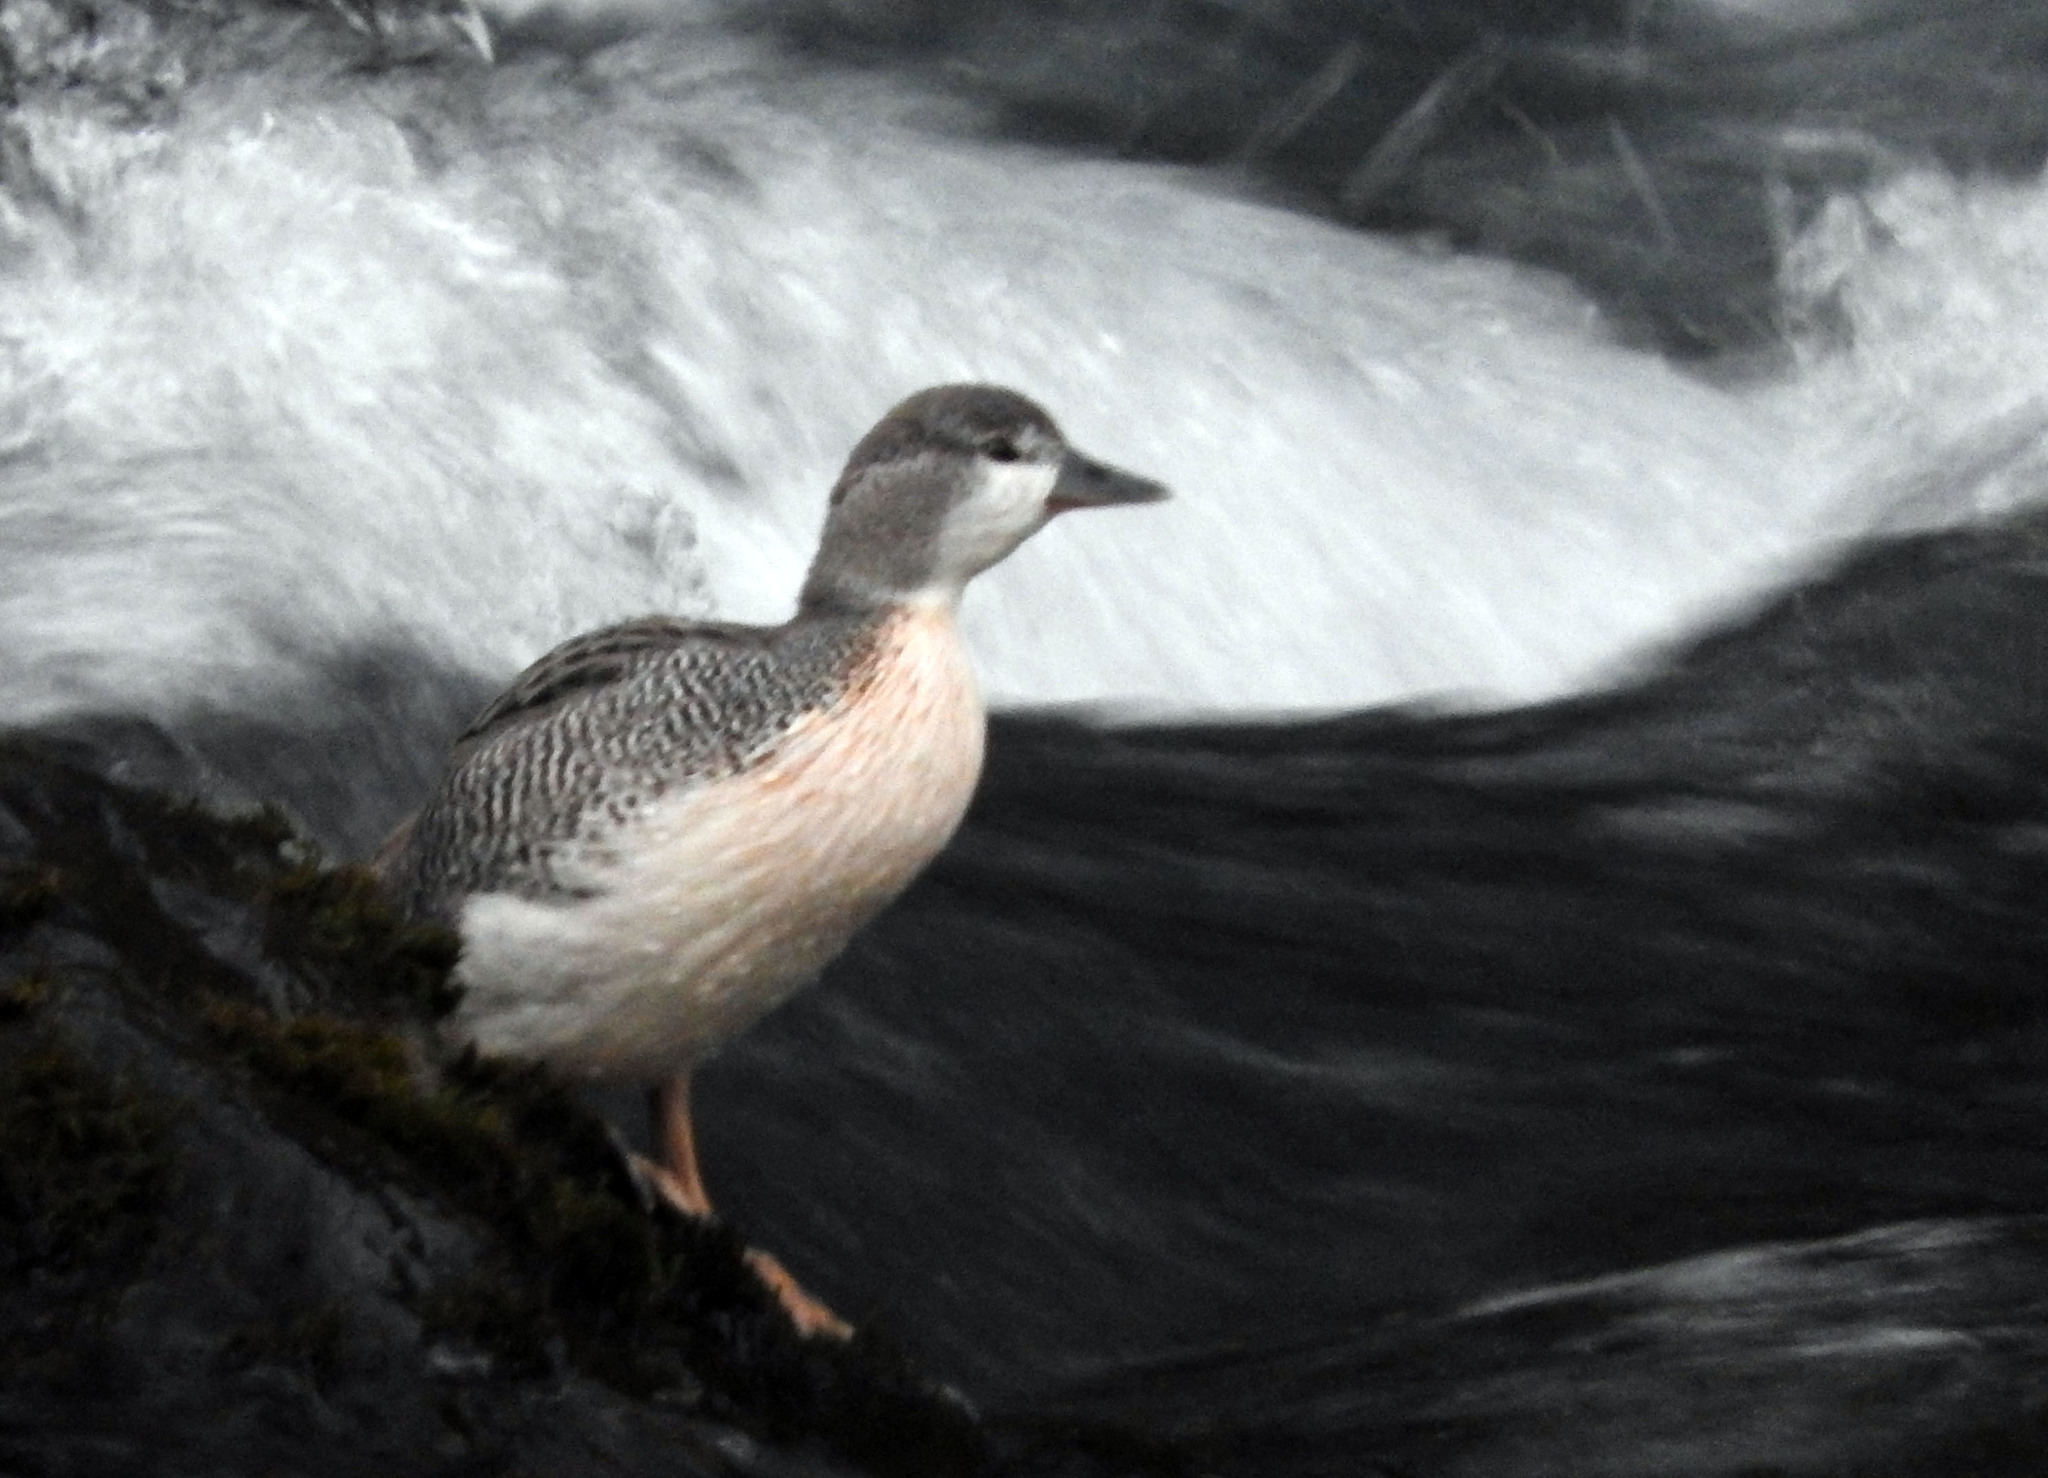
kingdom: Animalia
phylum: Chordata
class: Aves
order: Anseriformes
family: Anatidae
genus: Merganetta
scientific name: Merganetta armata
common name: Torrent duck
